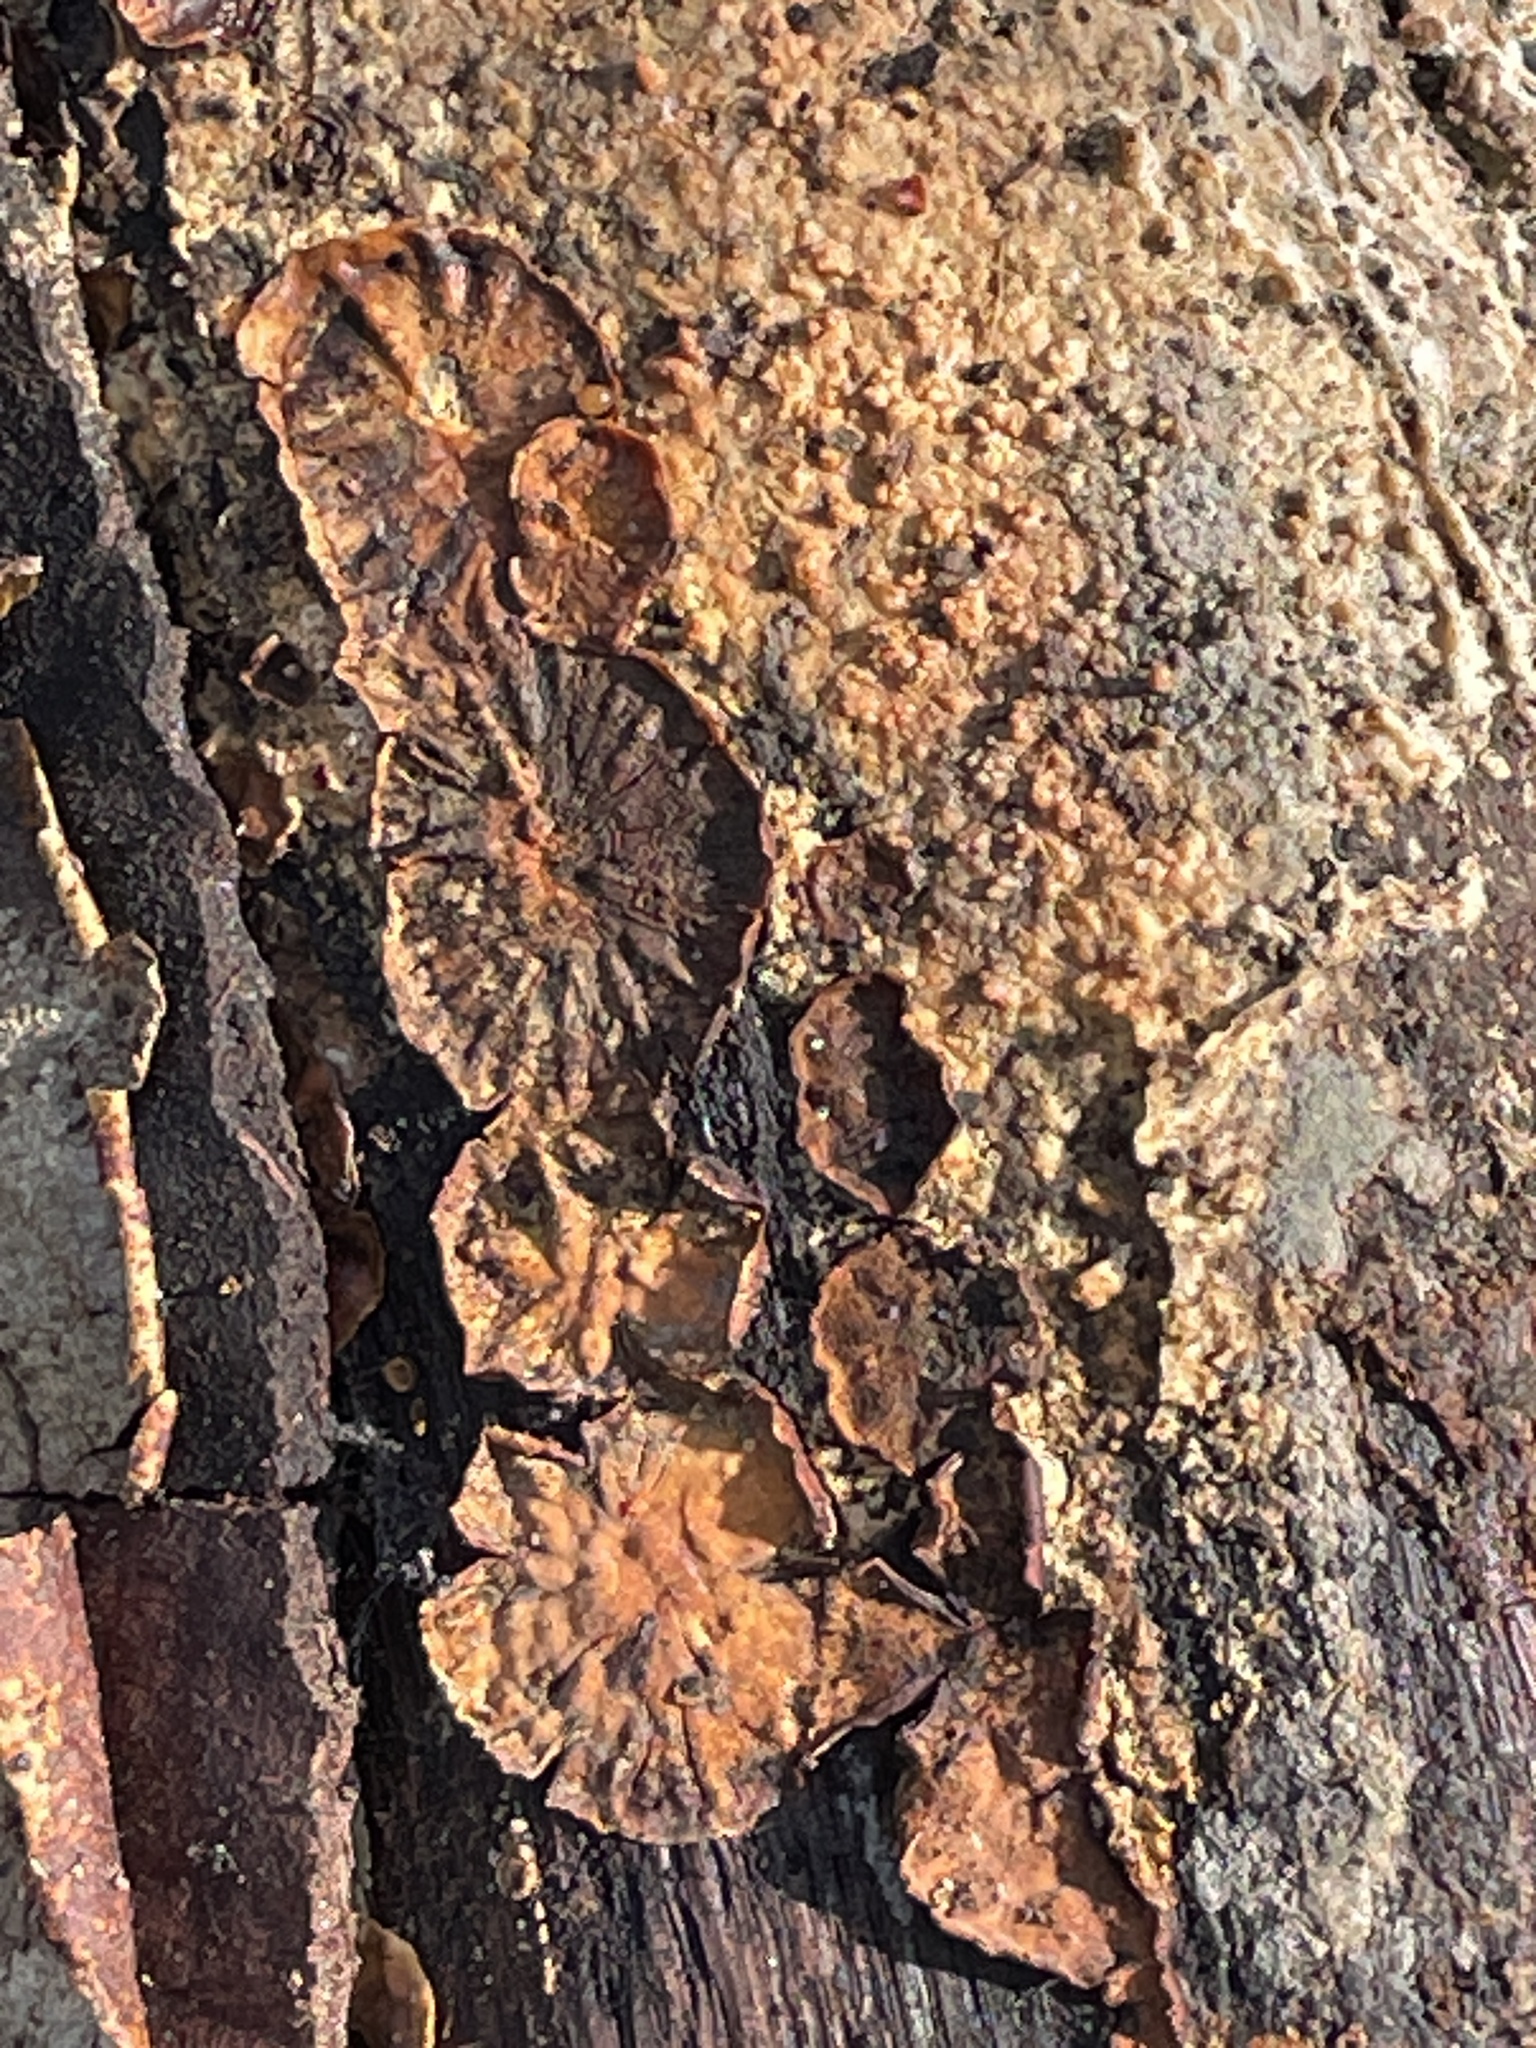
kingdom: Fungi
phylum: Basidiomycota
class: Agaricomycetes
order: Russulales
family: Stereaceae
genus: Stereum
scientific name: Stereum hirsutum
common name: Hairy curtain crust
